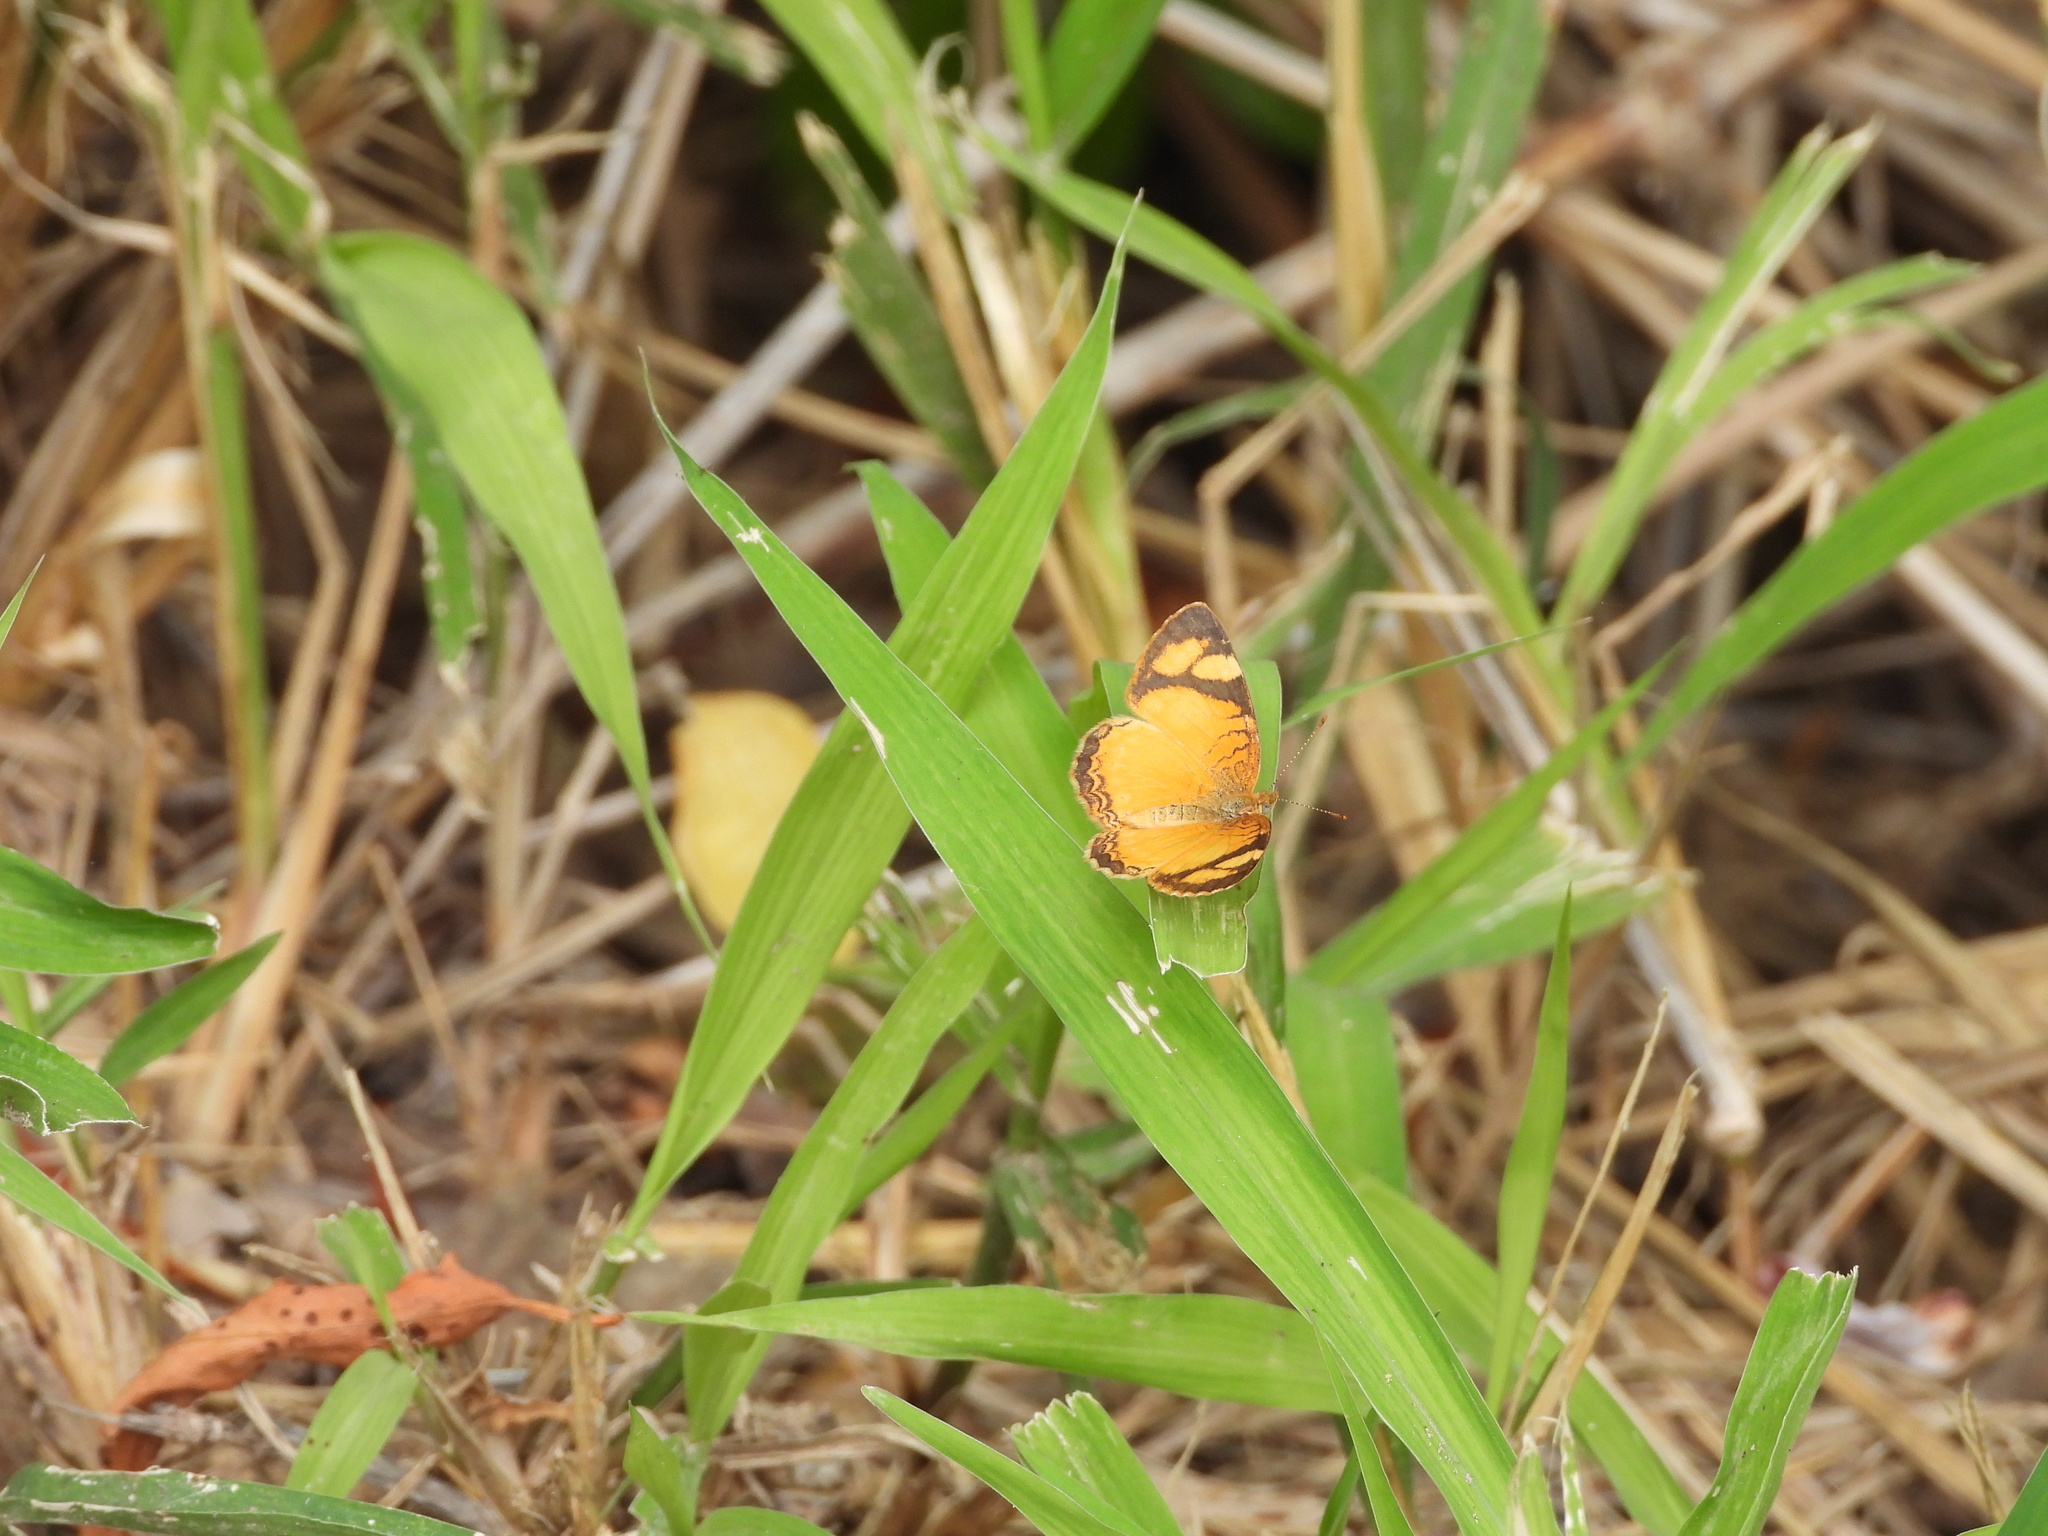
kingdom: Animalia
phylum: Arthropoda
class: Insecta
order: Lepidoptera
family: Nymphalidae
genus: Tegosa
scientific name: Tegosa claudina
